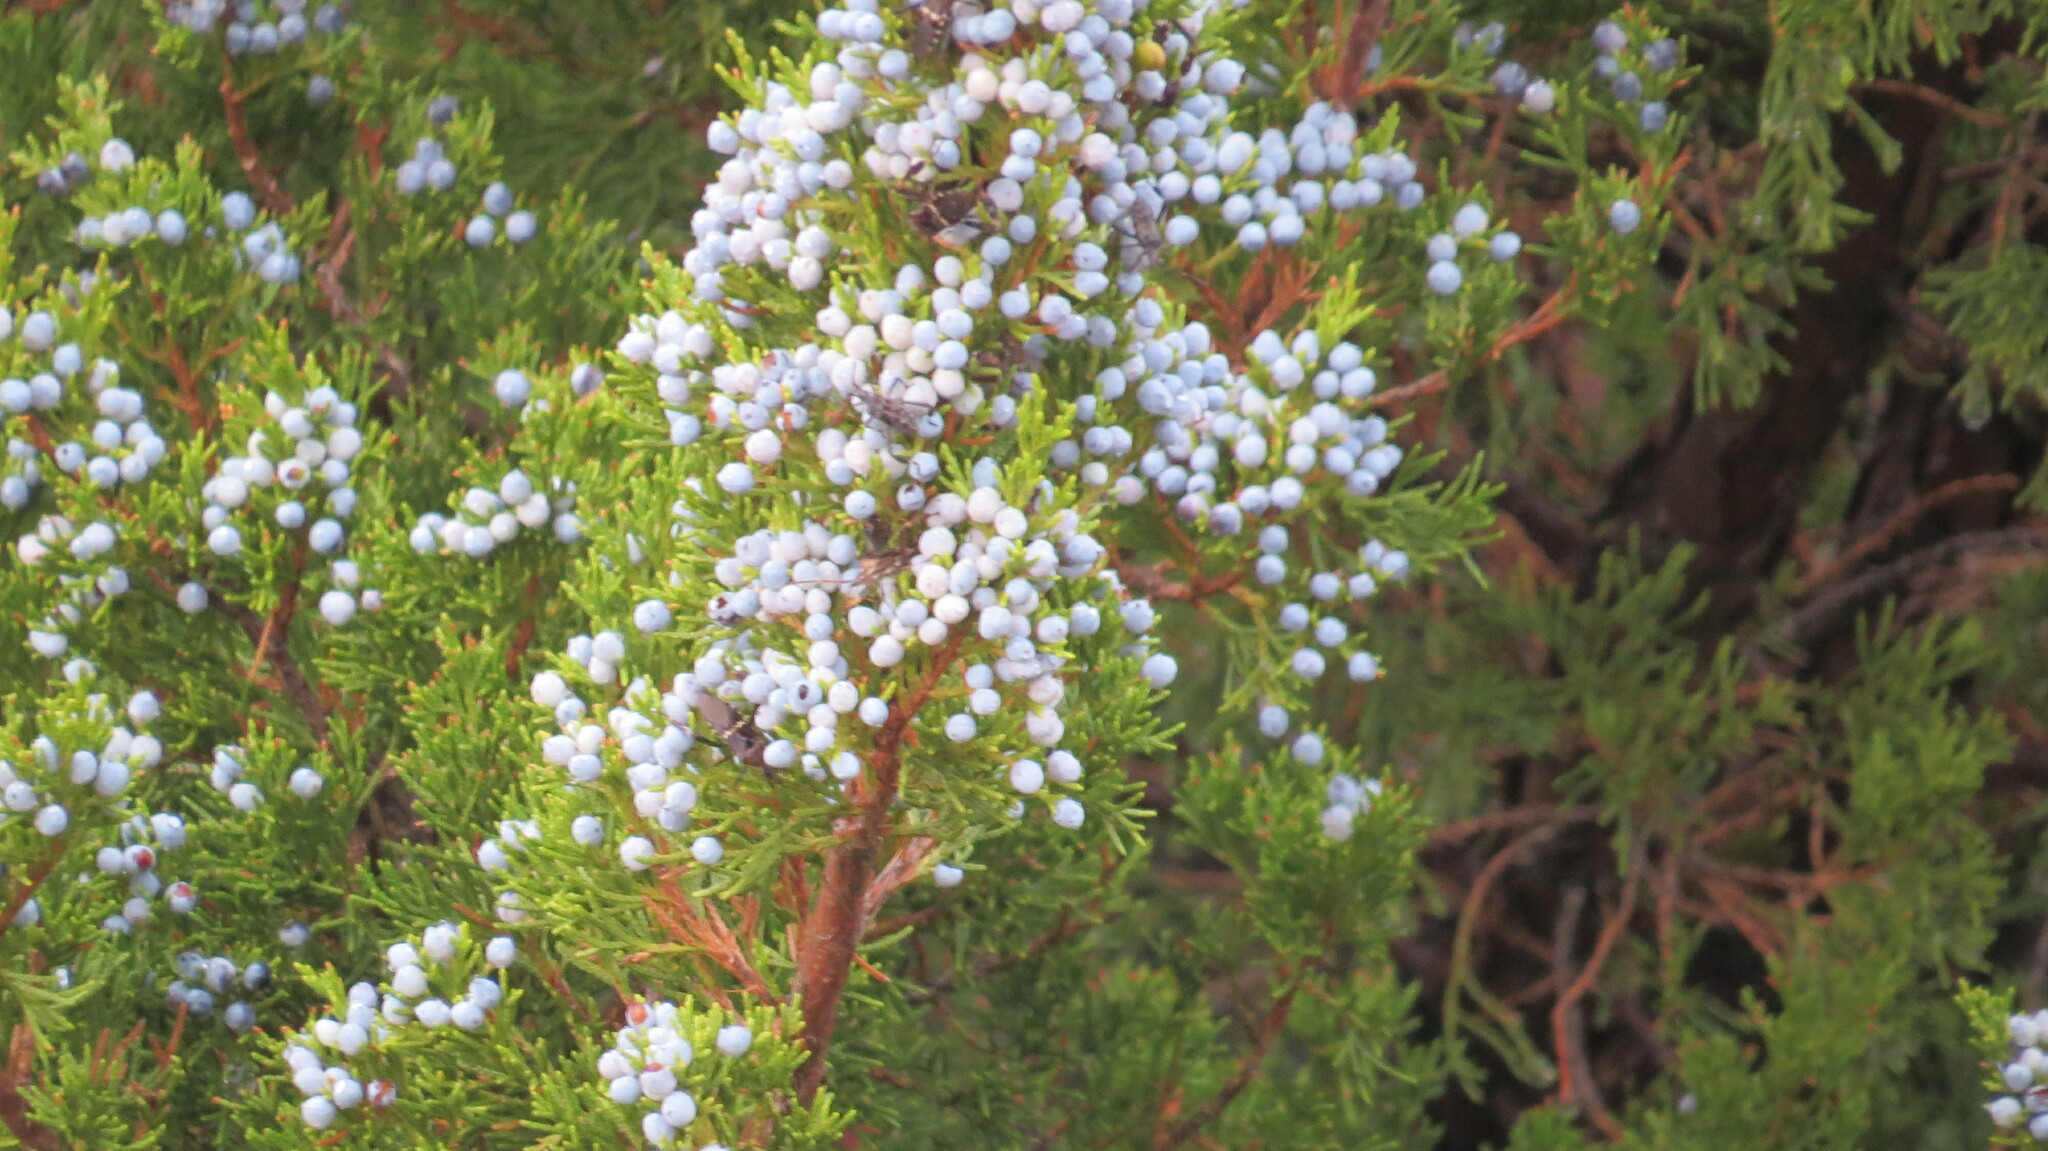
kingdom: Plantae
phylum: Tracheophyta
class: Pinopsida
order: Pinales
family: Cupressaceae
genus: Juniperus
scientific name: Juniperus virginiana
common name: Red juniper
